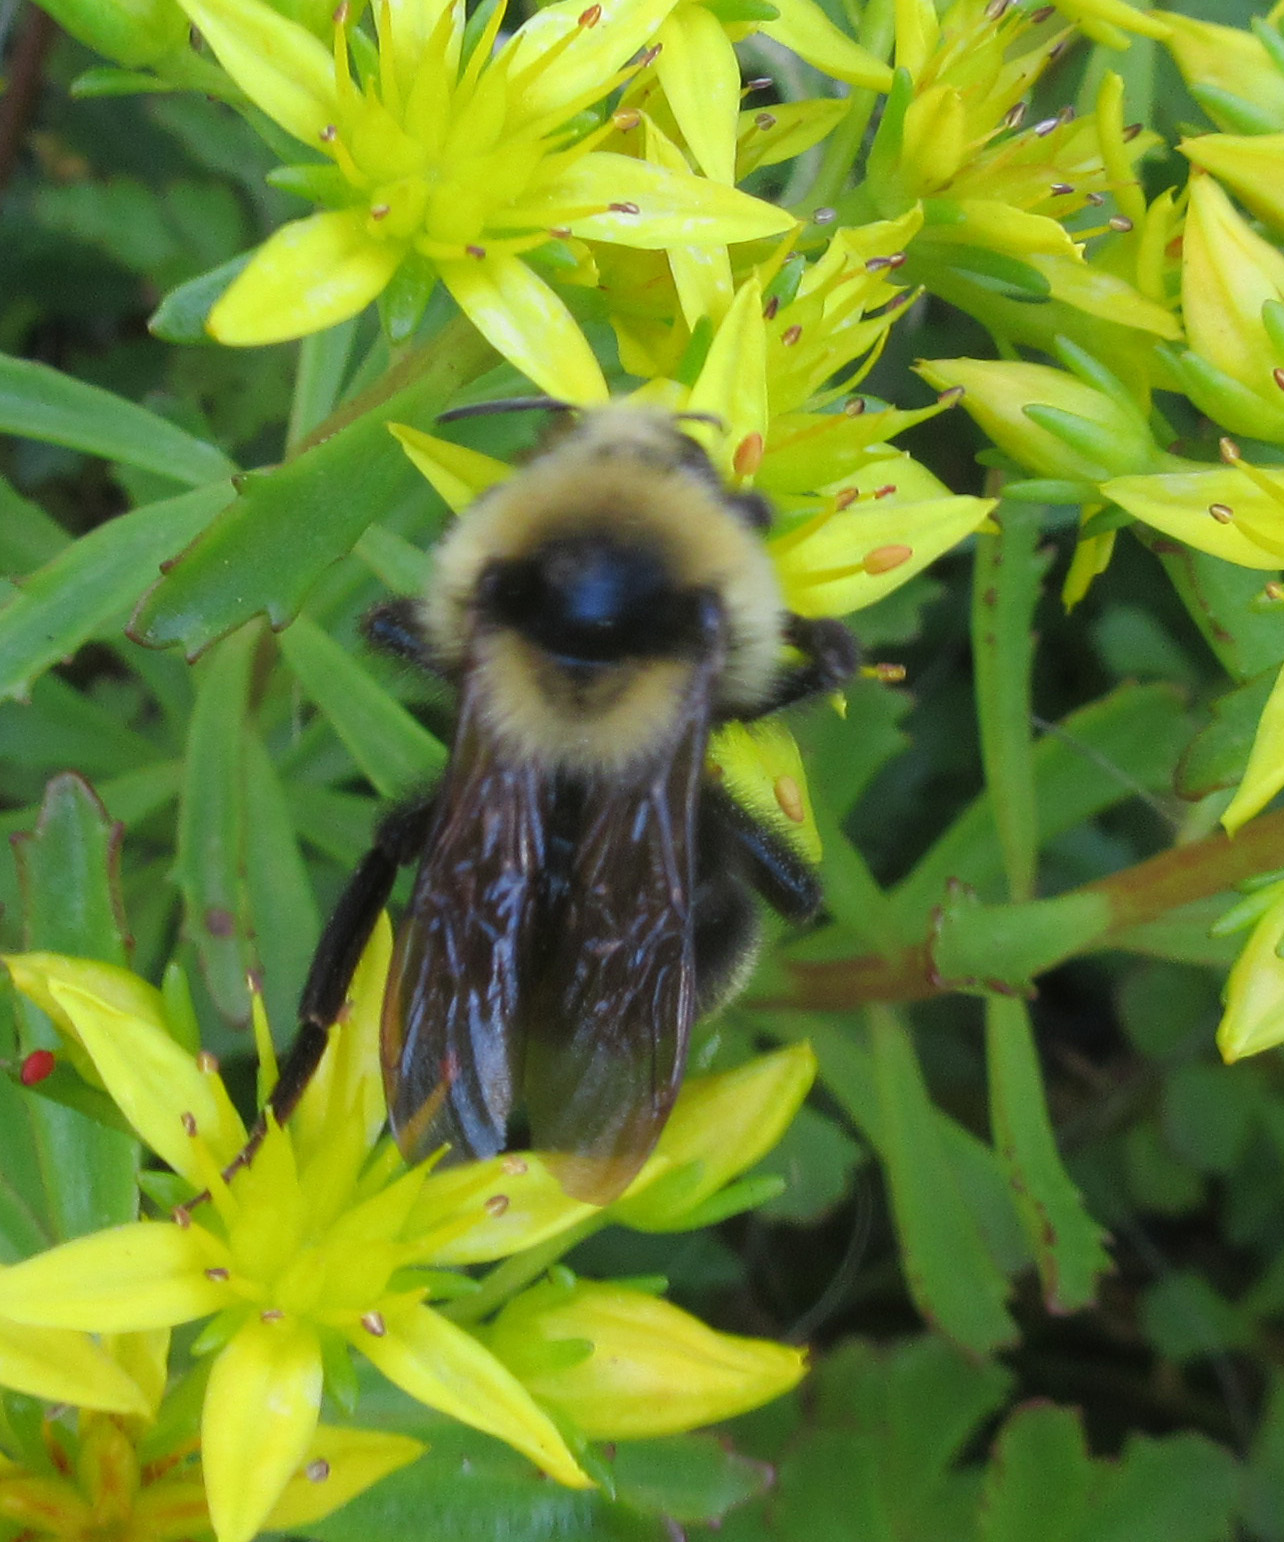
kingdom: Animalia
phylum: Arthropoda
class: Insecta
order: Hymenoptera
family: Apidae
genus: Bombus
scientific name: Bombus insularis
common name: Indiscriminate cuckoo bumble bee
